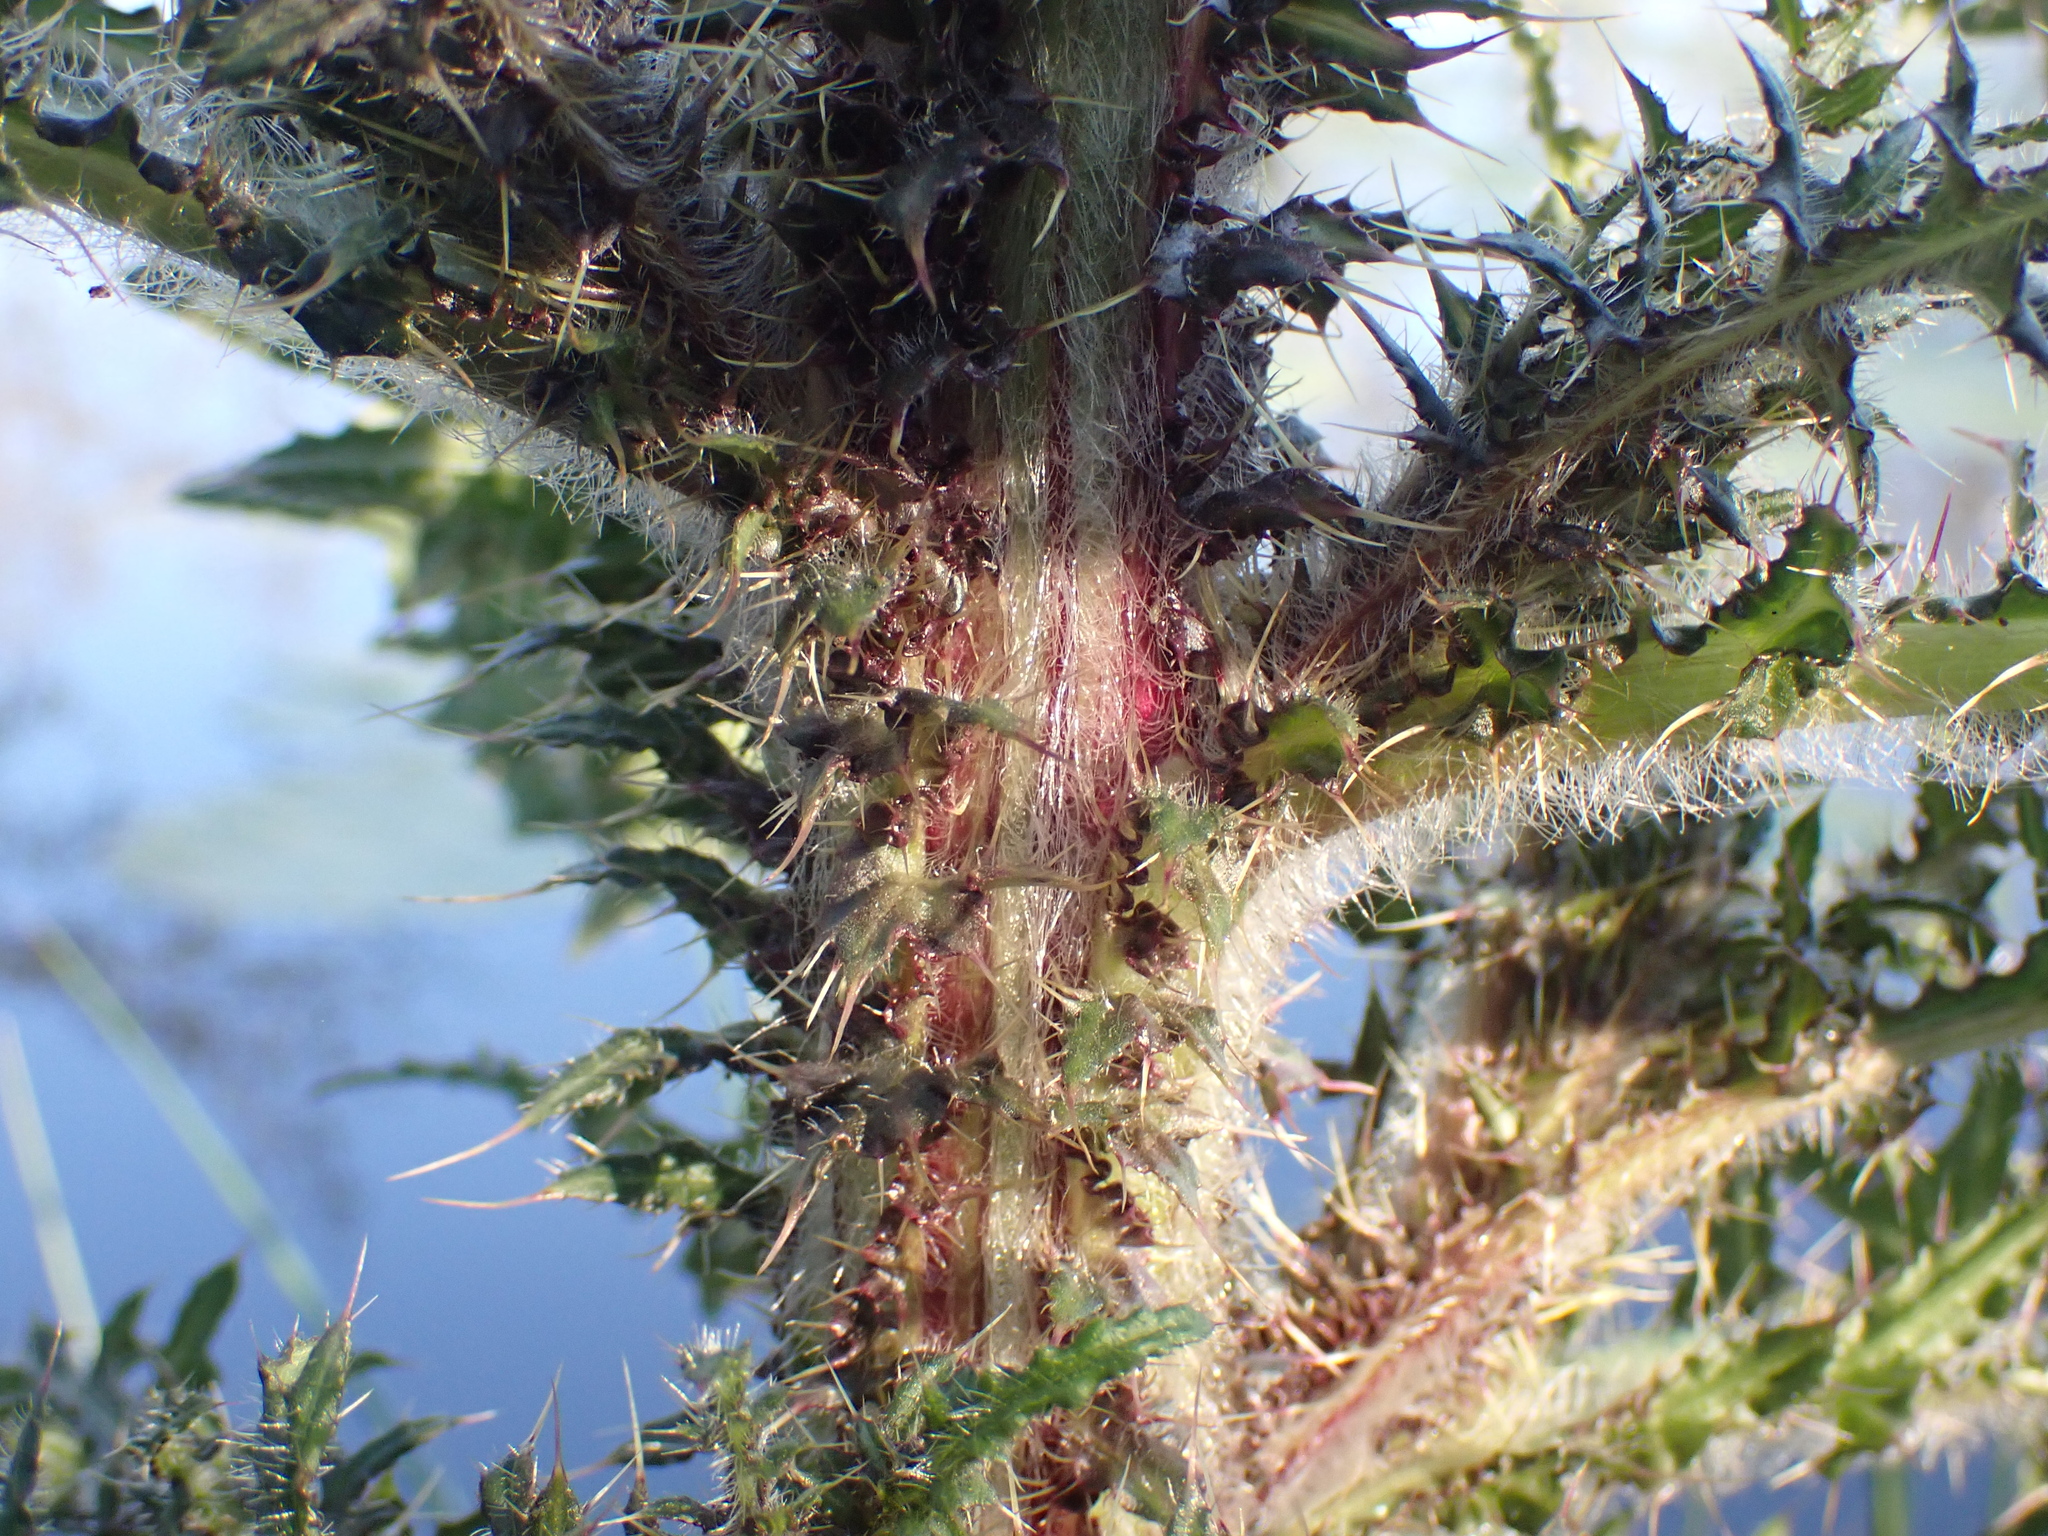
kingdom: Plantae
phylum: Tracheophyta
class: Magnoliopsida
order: Asterales
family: Asteraceae
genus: Cirsium
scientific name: Cirsium palustre
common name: Marsh thistle
